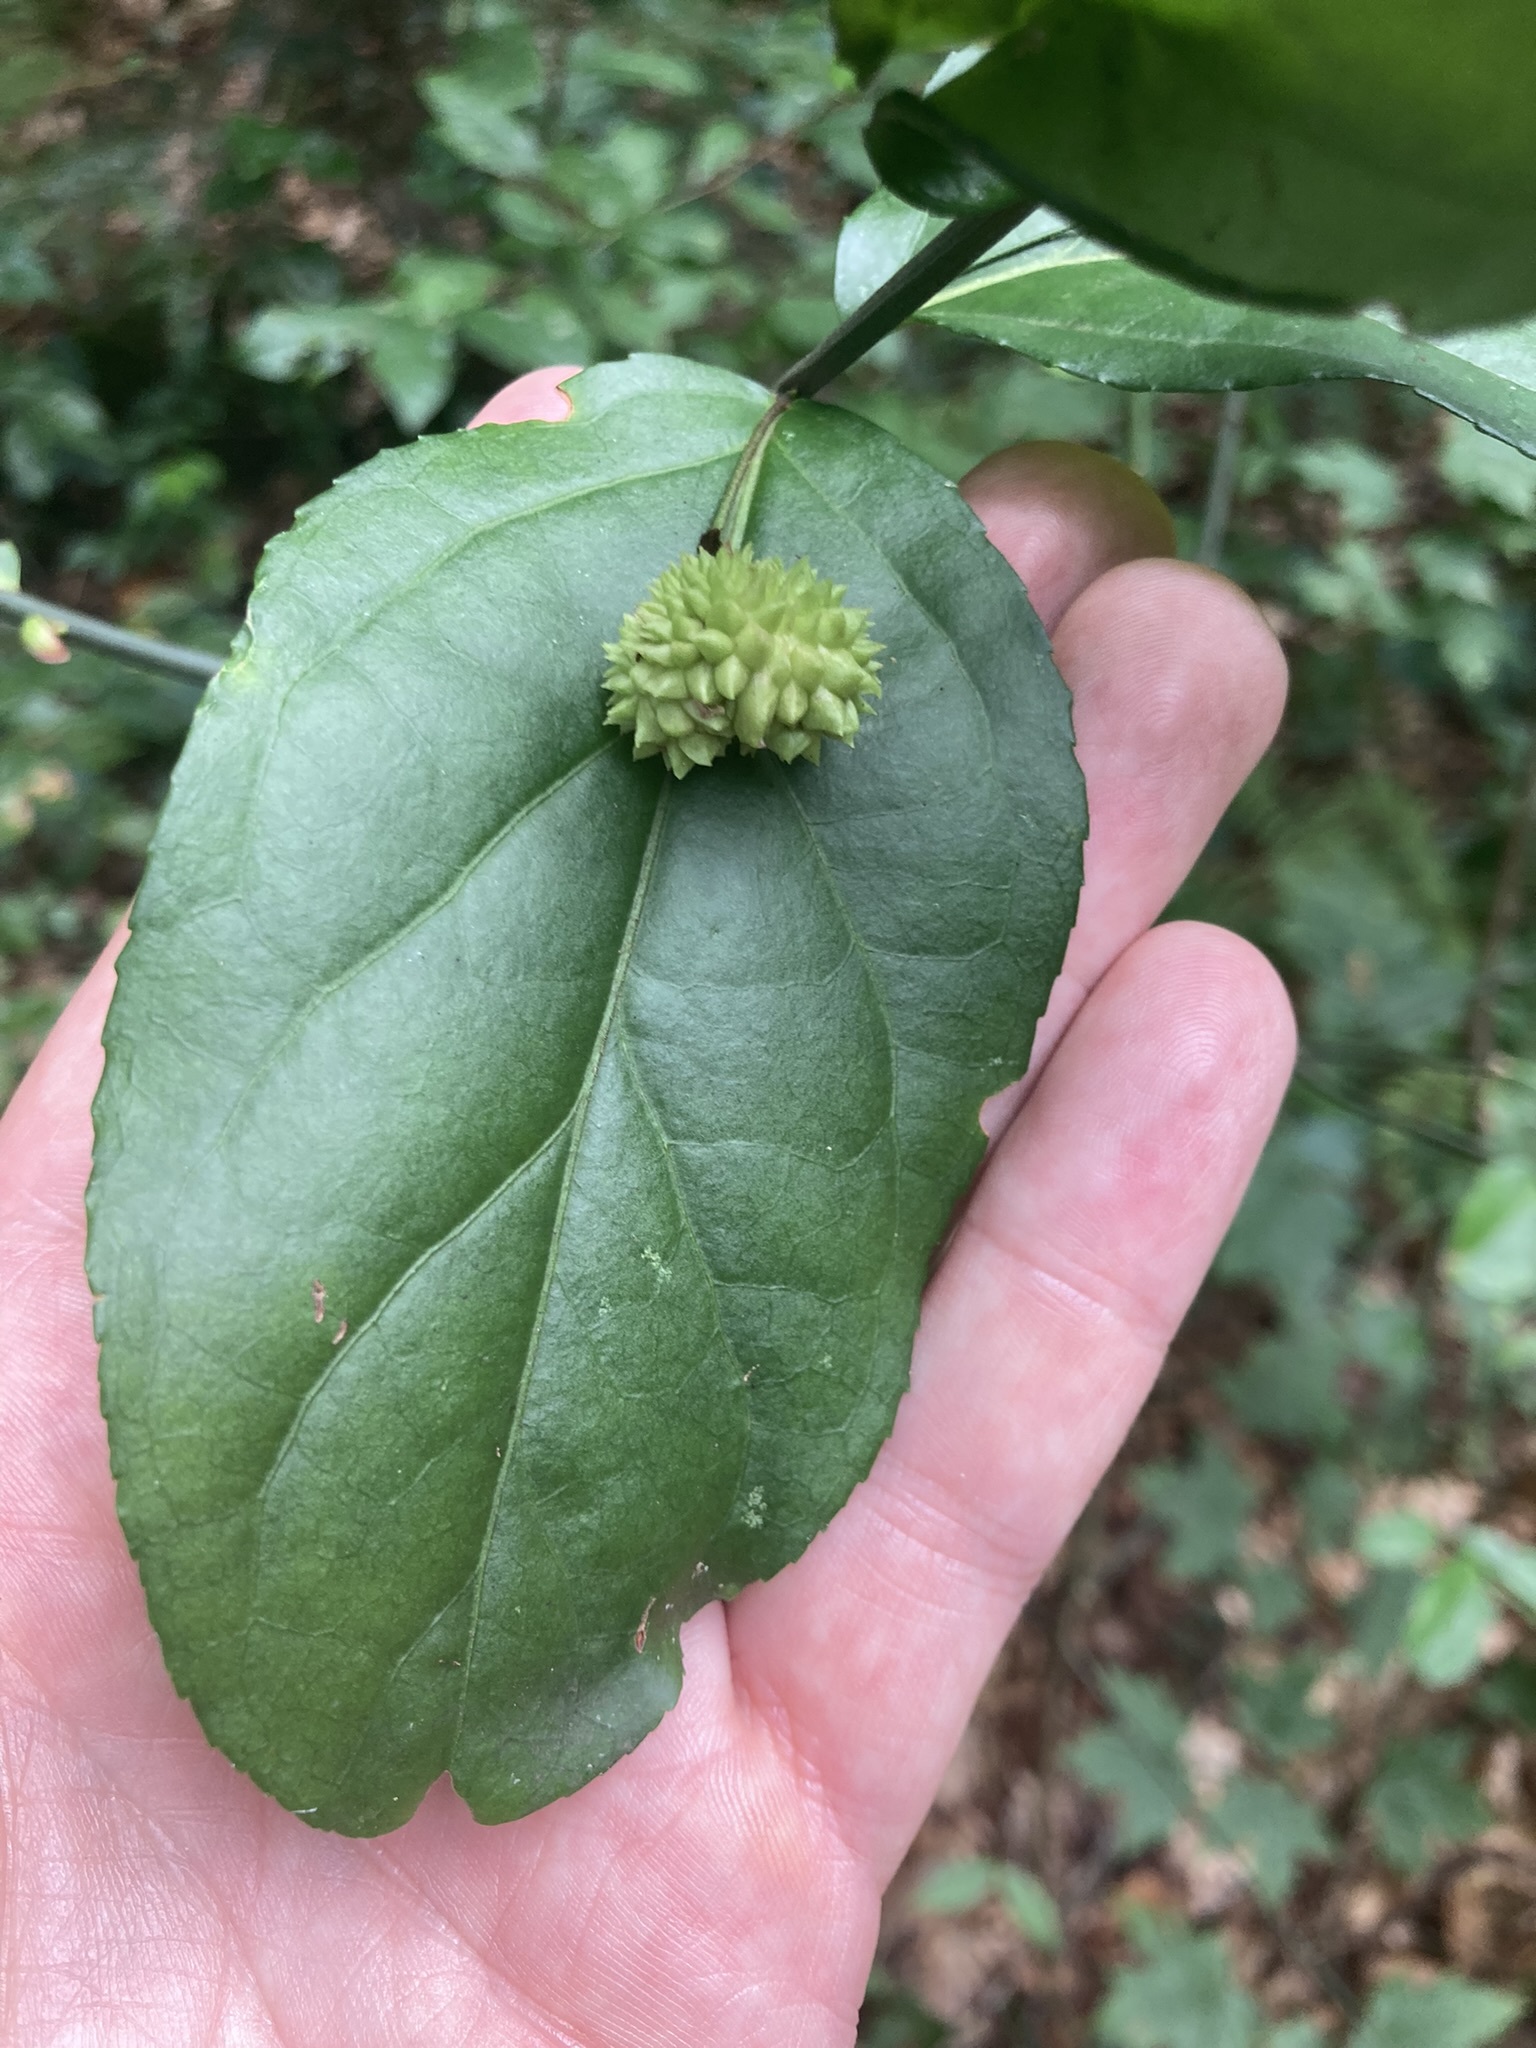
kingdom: Plantae
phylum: Tracheophyta
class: Magnoliopsida
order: Celastrales
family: Celastraceae
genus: Euonymus
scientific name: Euonymus americanus
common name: Bursting-heart
